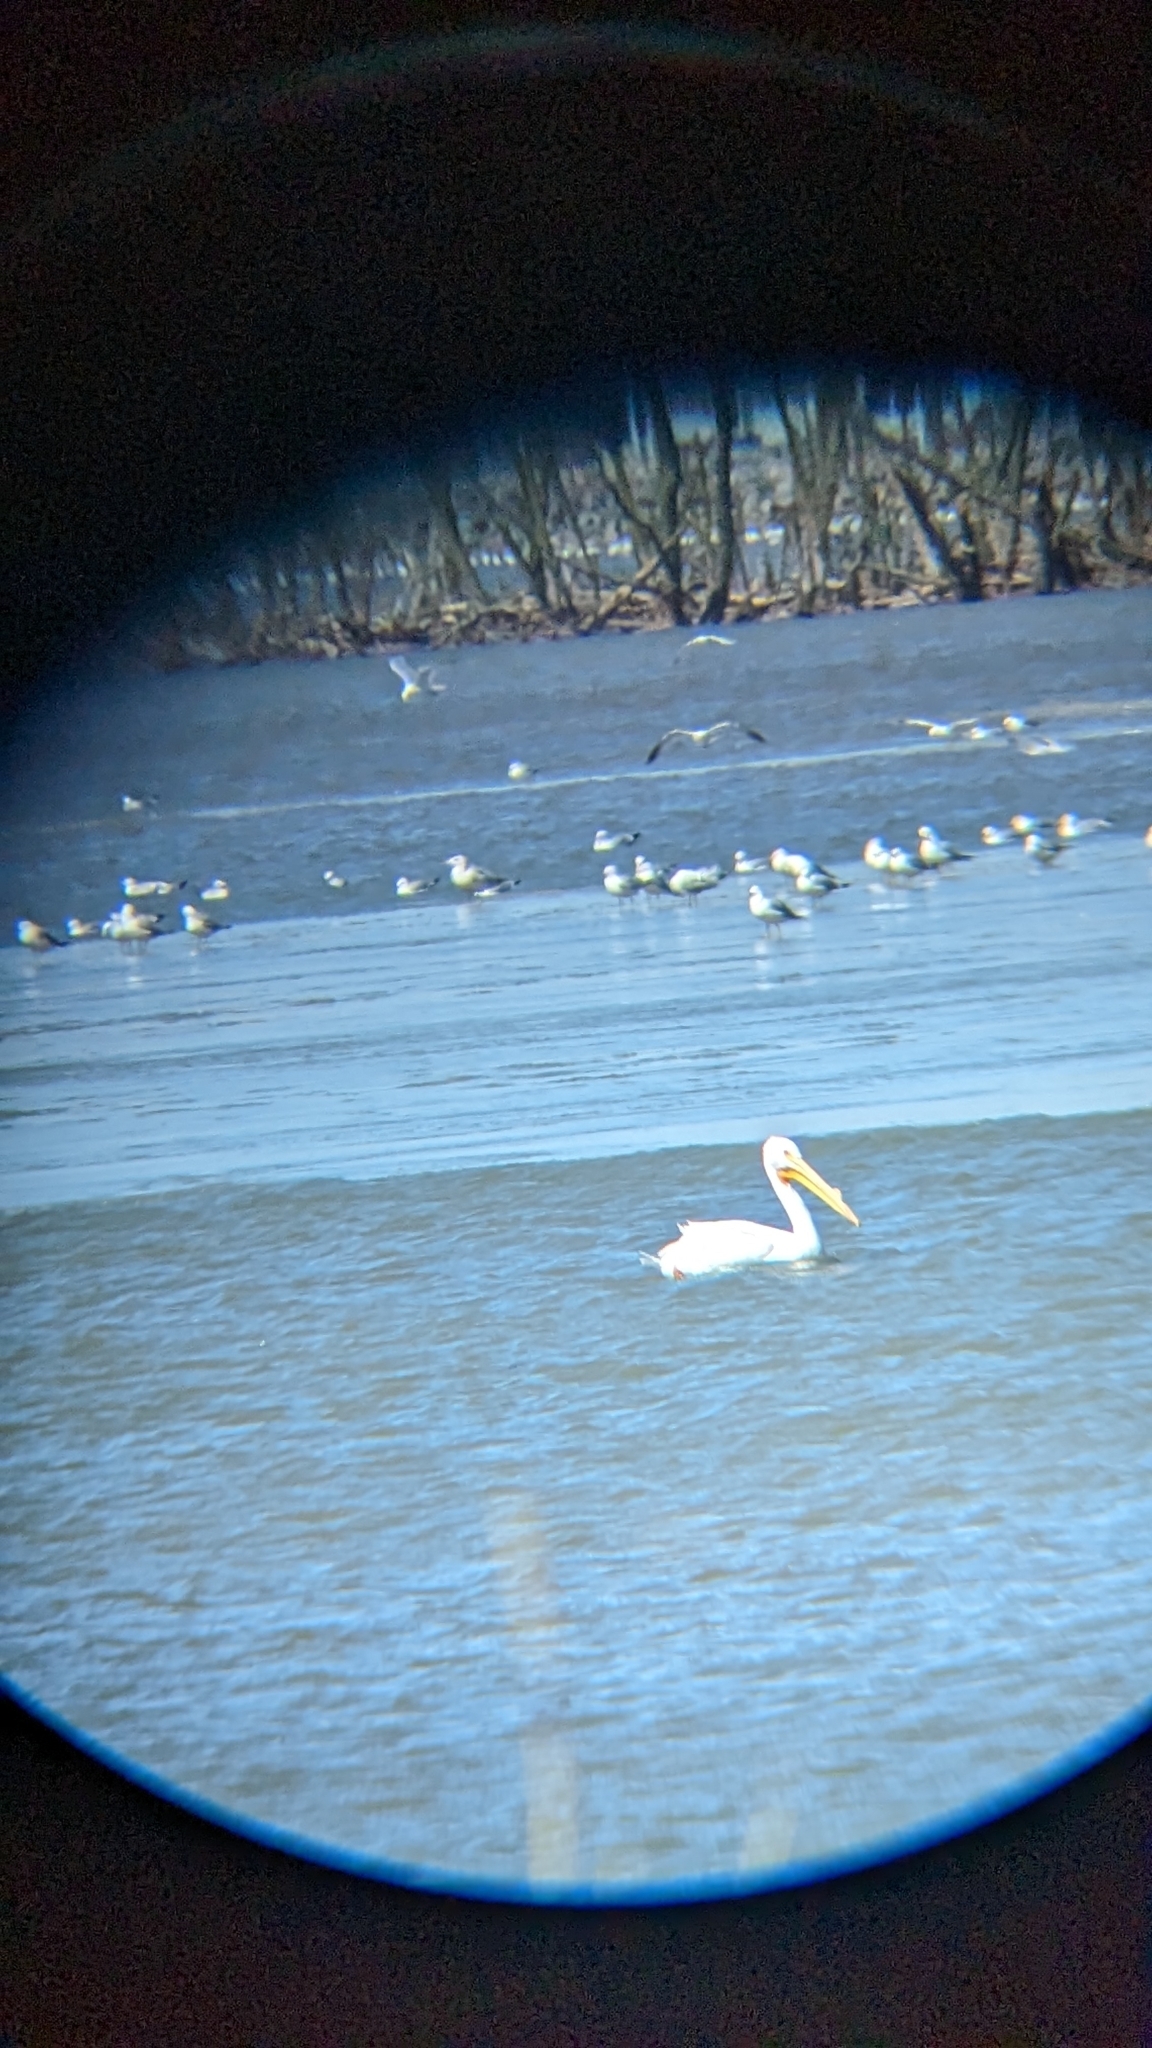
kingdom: Animalia
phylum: Chordata
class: Aves
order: Pelecaniformes
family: Pelecanidae
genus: Pelecanus
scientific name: Pelecanus erythrorhynchos
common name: American white pelican
